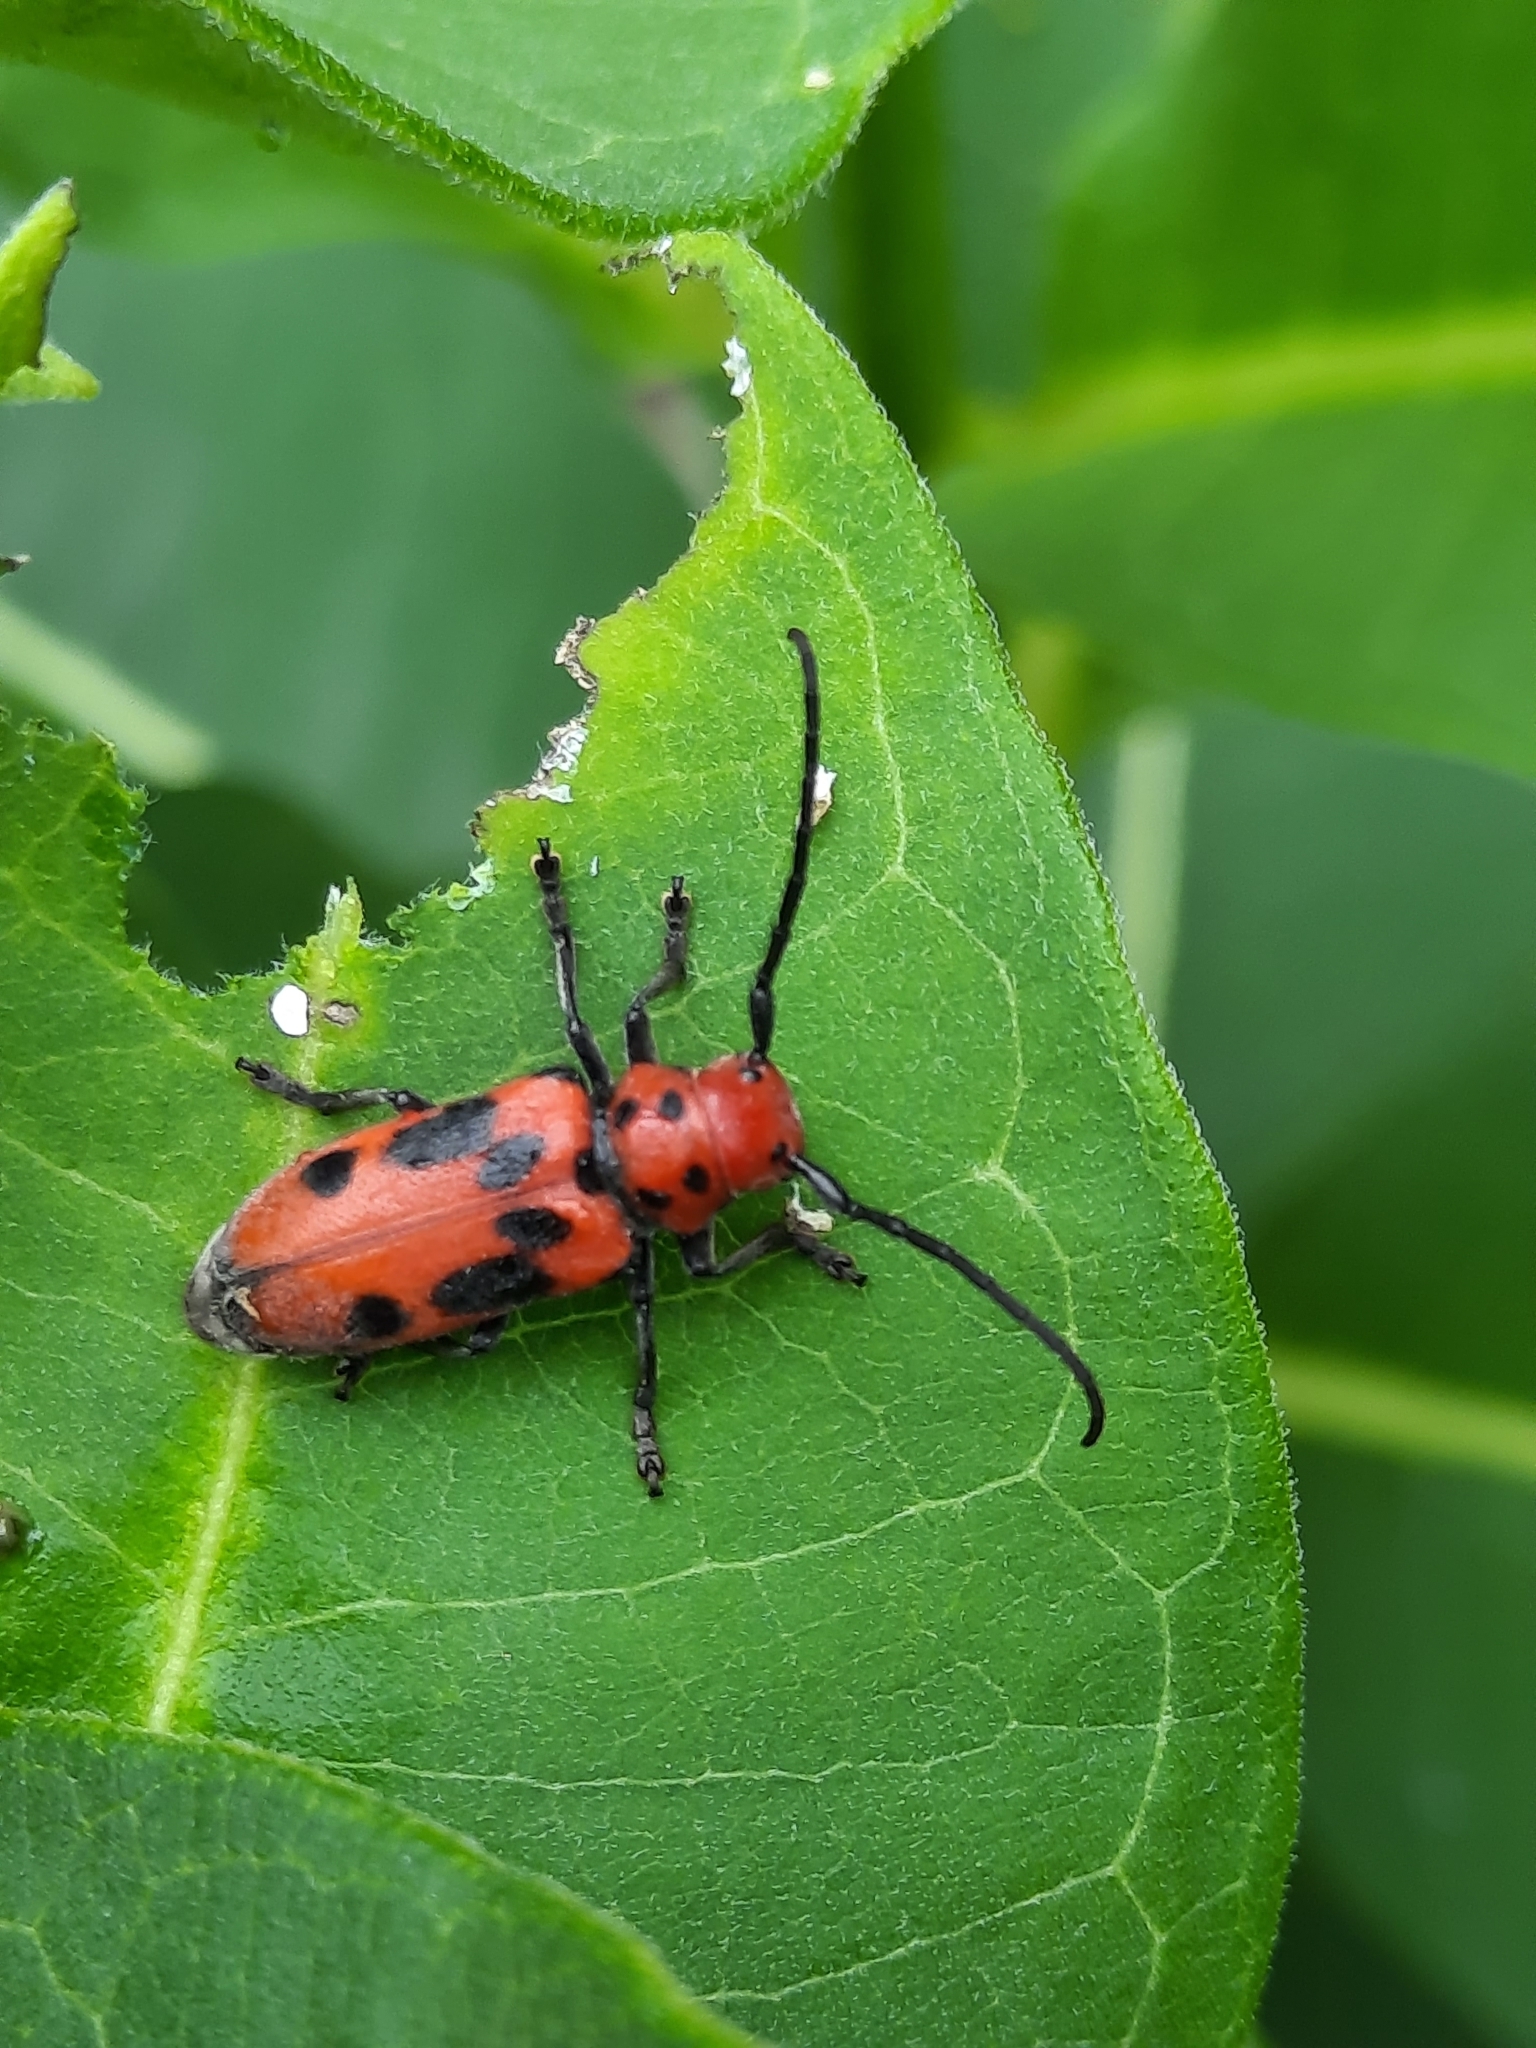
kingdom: Animalia
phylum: Arthropoda
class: Insecta
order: Coleoptera
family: Cerambycidae
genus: Tetraopes
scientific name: Tetraopes tetrophthalmus
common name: Red milkweed beetle
